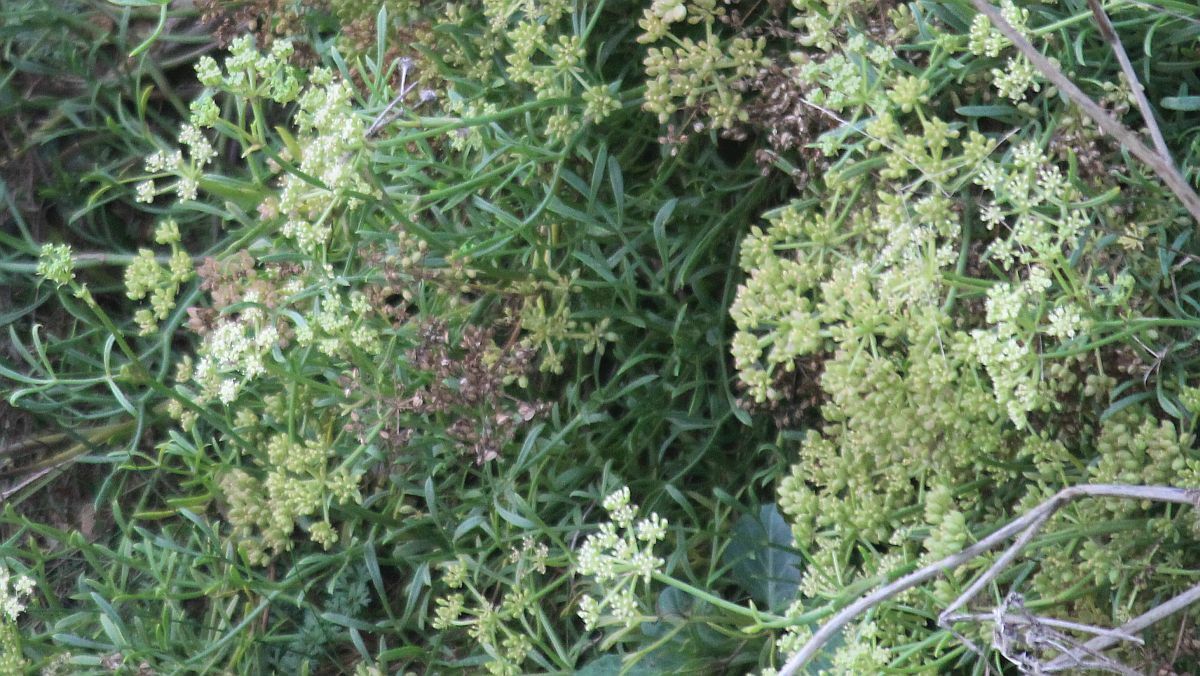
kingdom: Plantae
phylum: Tracheophyta
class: Magnoliopsida
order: Apiales
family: Apiaceae
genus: Crithmum
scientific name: Crithmum maritimum
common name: Rock samphire
